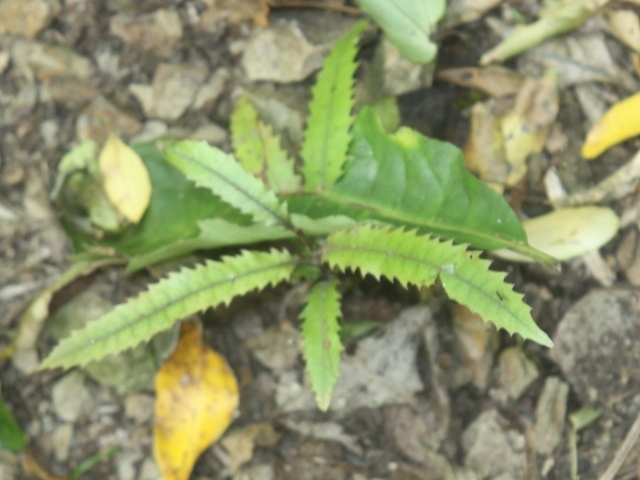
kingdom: Plantae
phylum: Tracheophyta
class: Magnoliopsida
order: Proteales
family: Proteaceae
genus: Knightia
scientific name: Knightia excelsa
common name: New zealand-honeysuckle
